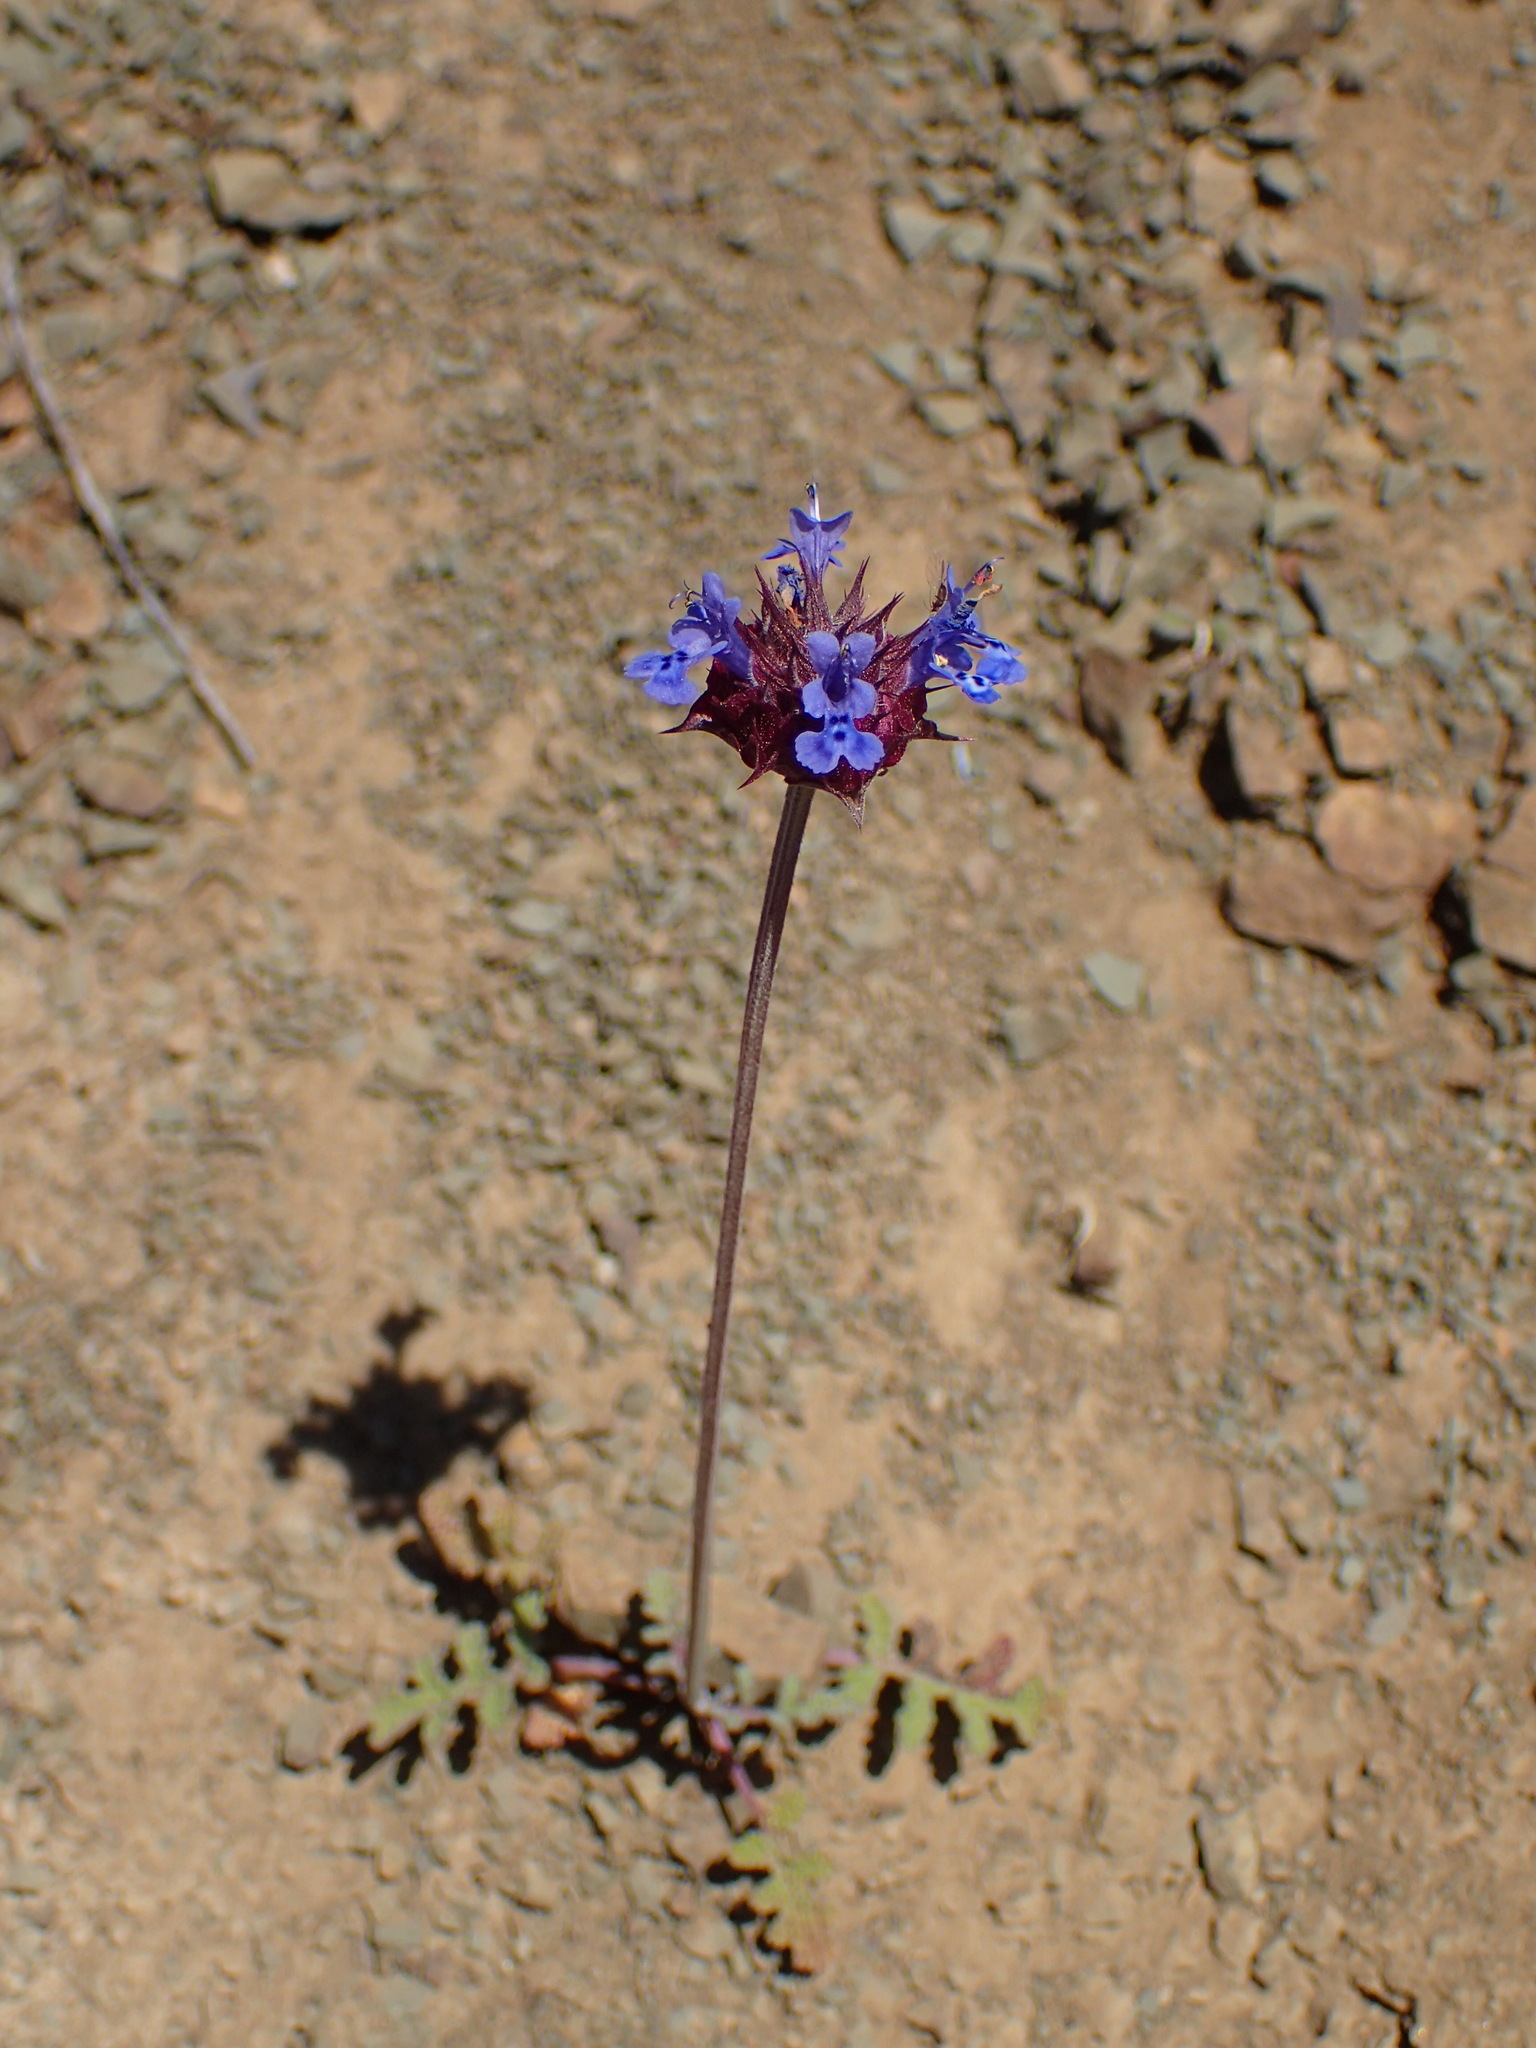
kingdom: Plantae
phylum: Tracheophyta
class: Magnoliopsida
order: Lamiales
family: Lamiaceae
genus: Salvia
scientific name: Salvia columbariae
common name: Chia
